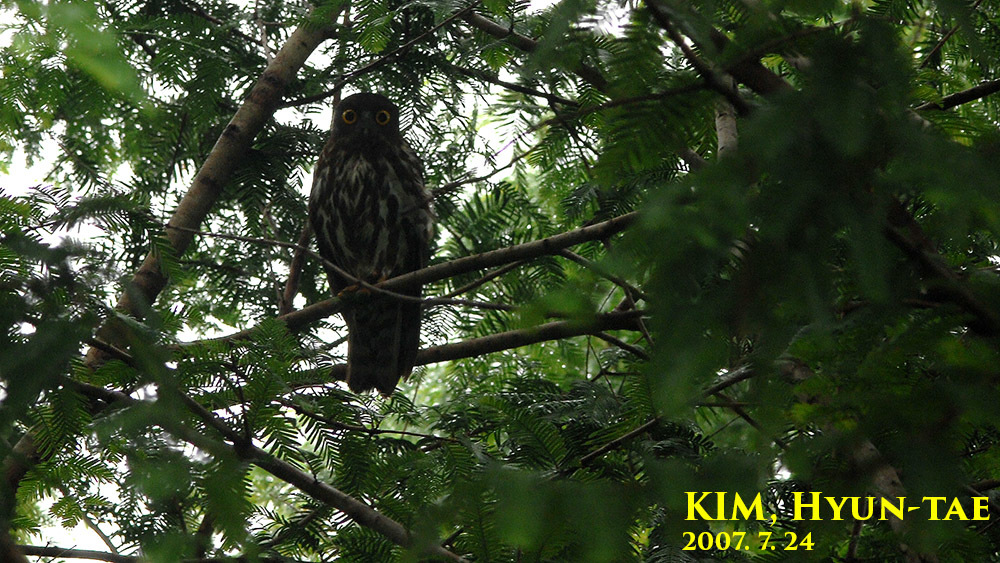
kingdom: Animalia
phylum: Chordata
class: Aves
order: Strigiformes
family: Strigidae
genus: Ninox
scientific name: Ninox japonica
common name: Northern boobook
